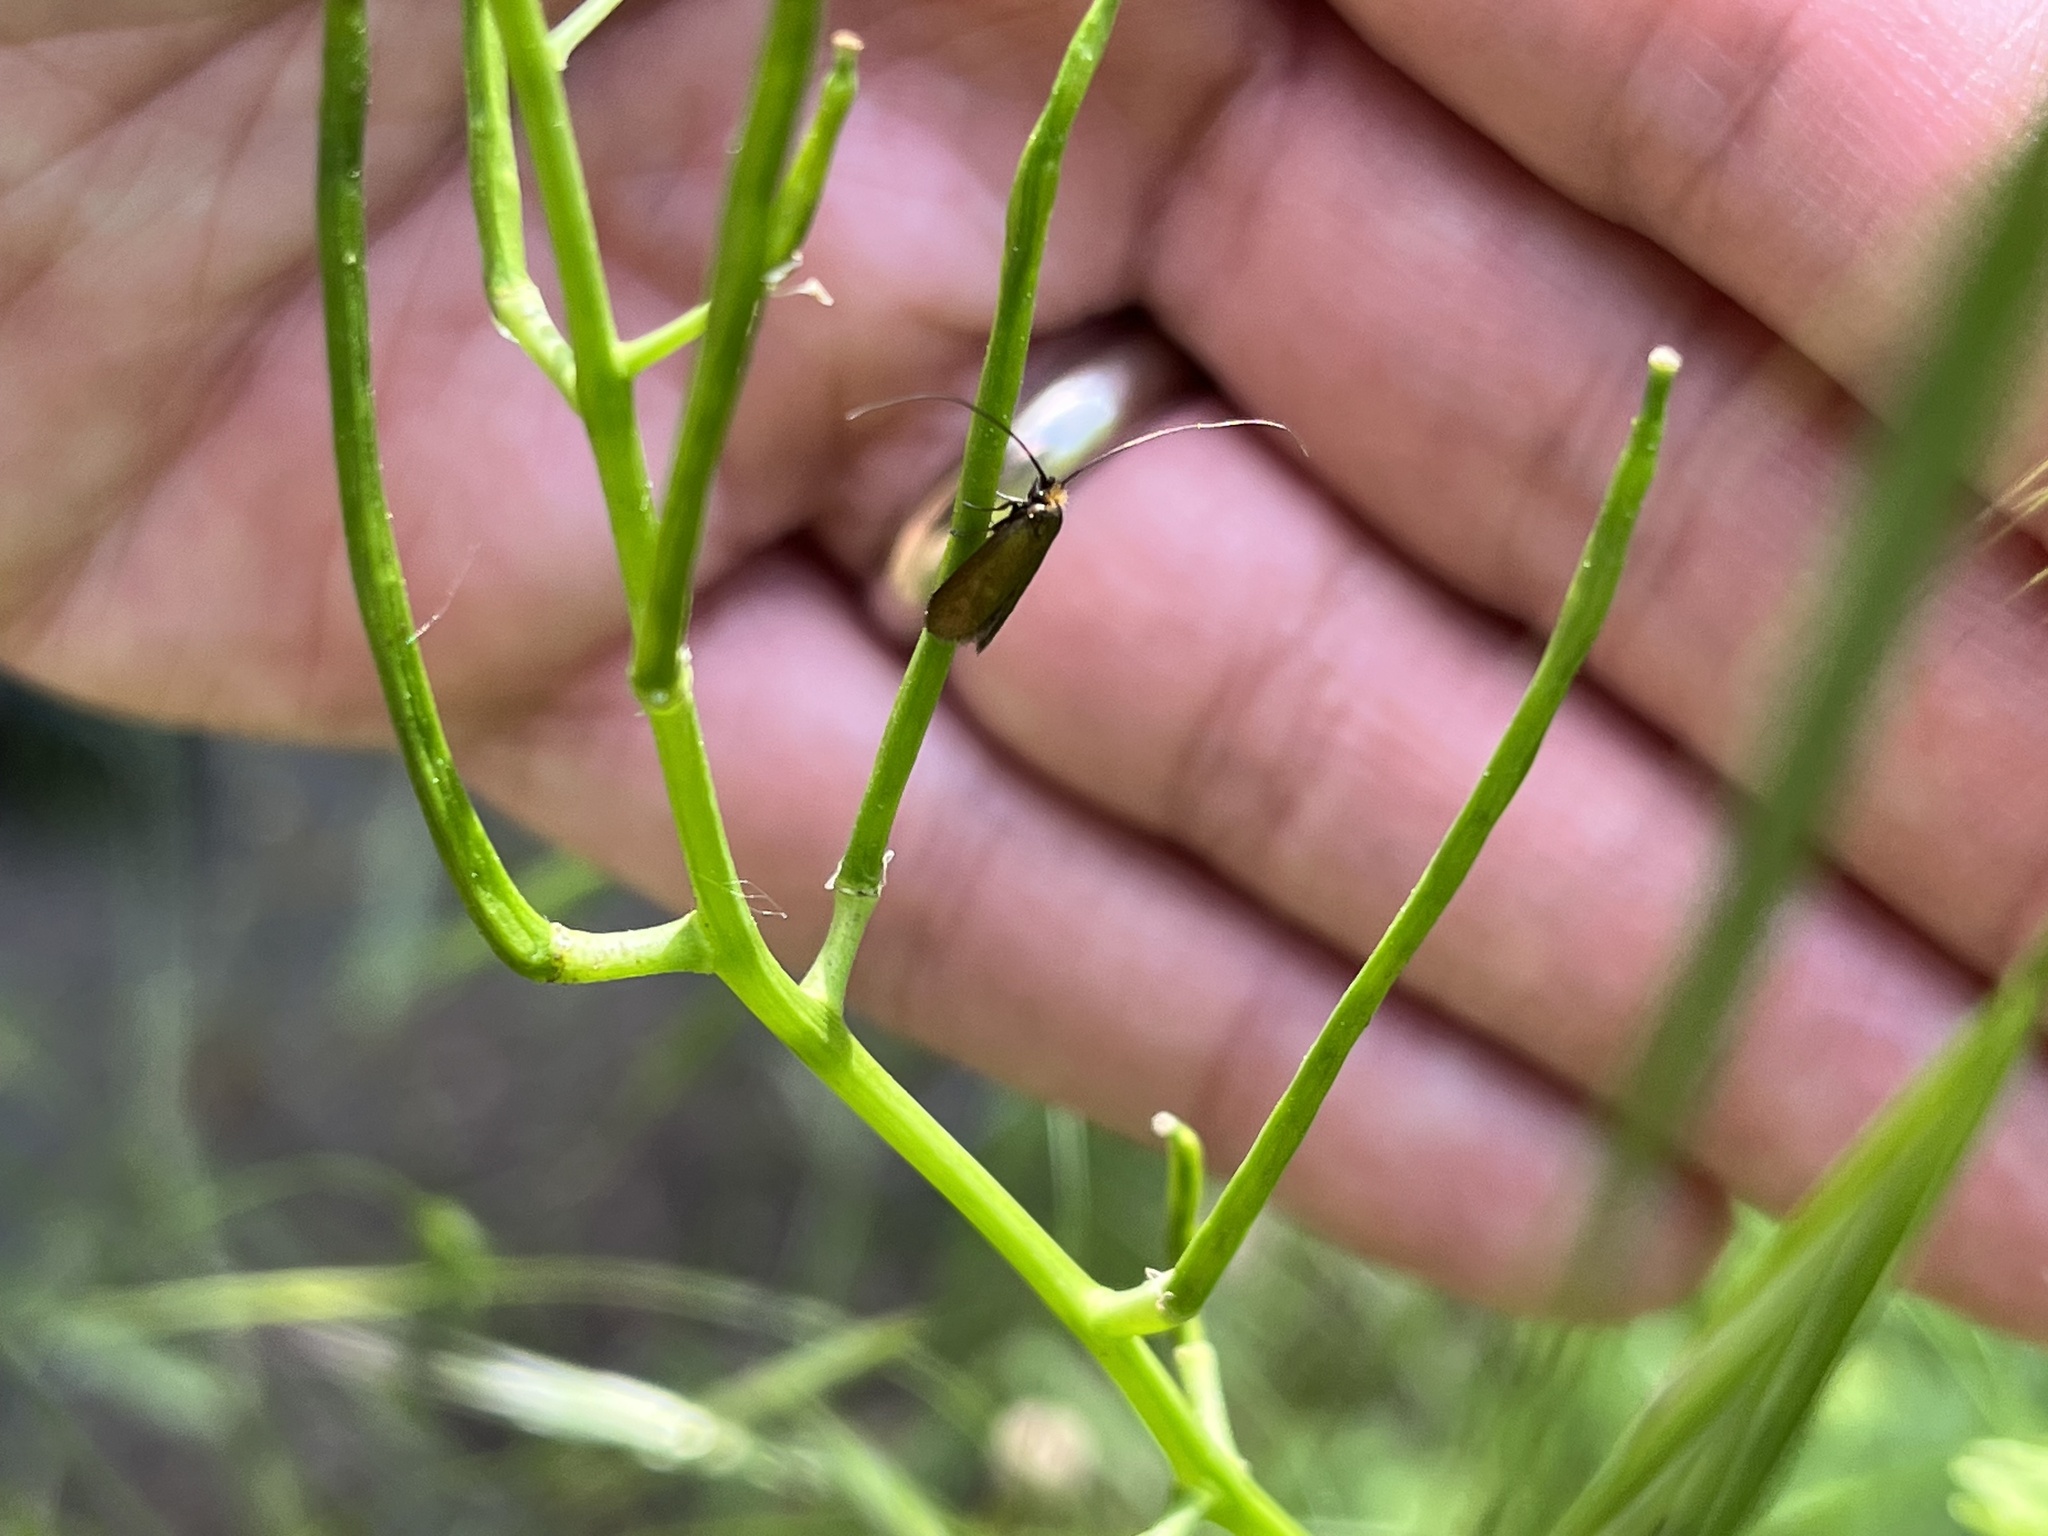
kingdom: Animalia
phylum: Arthropoda
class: Insecta
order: Lepidoptera
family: Adelidae
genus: Cauchas
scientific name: Cauchas rufimitrella
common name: Meadow long-horn
